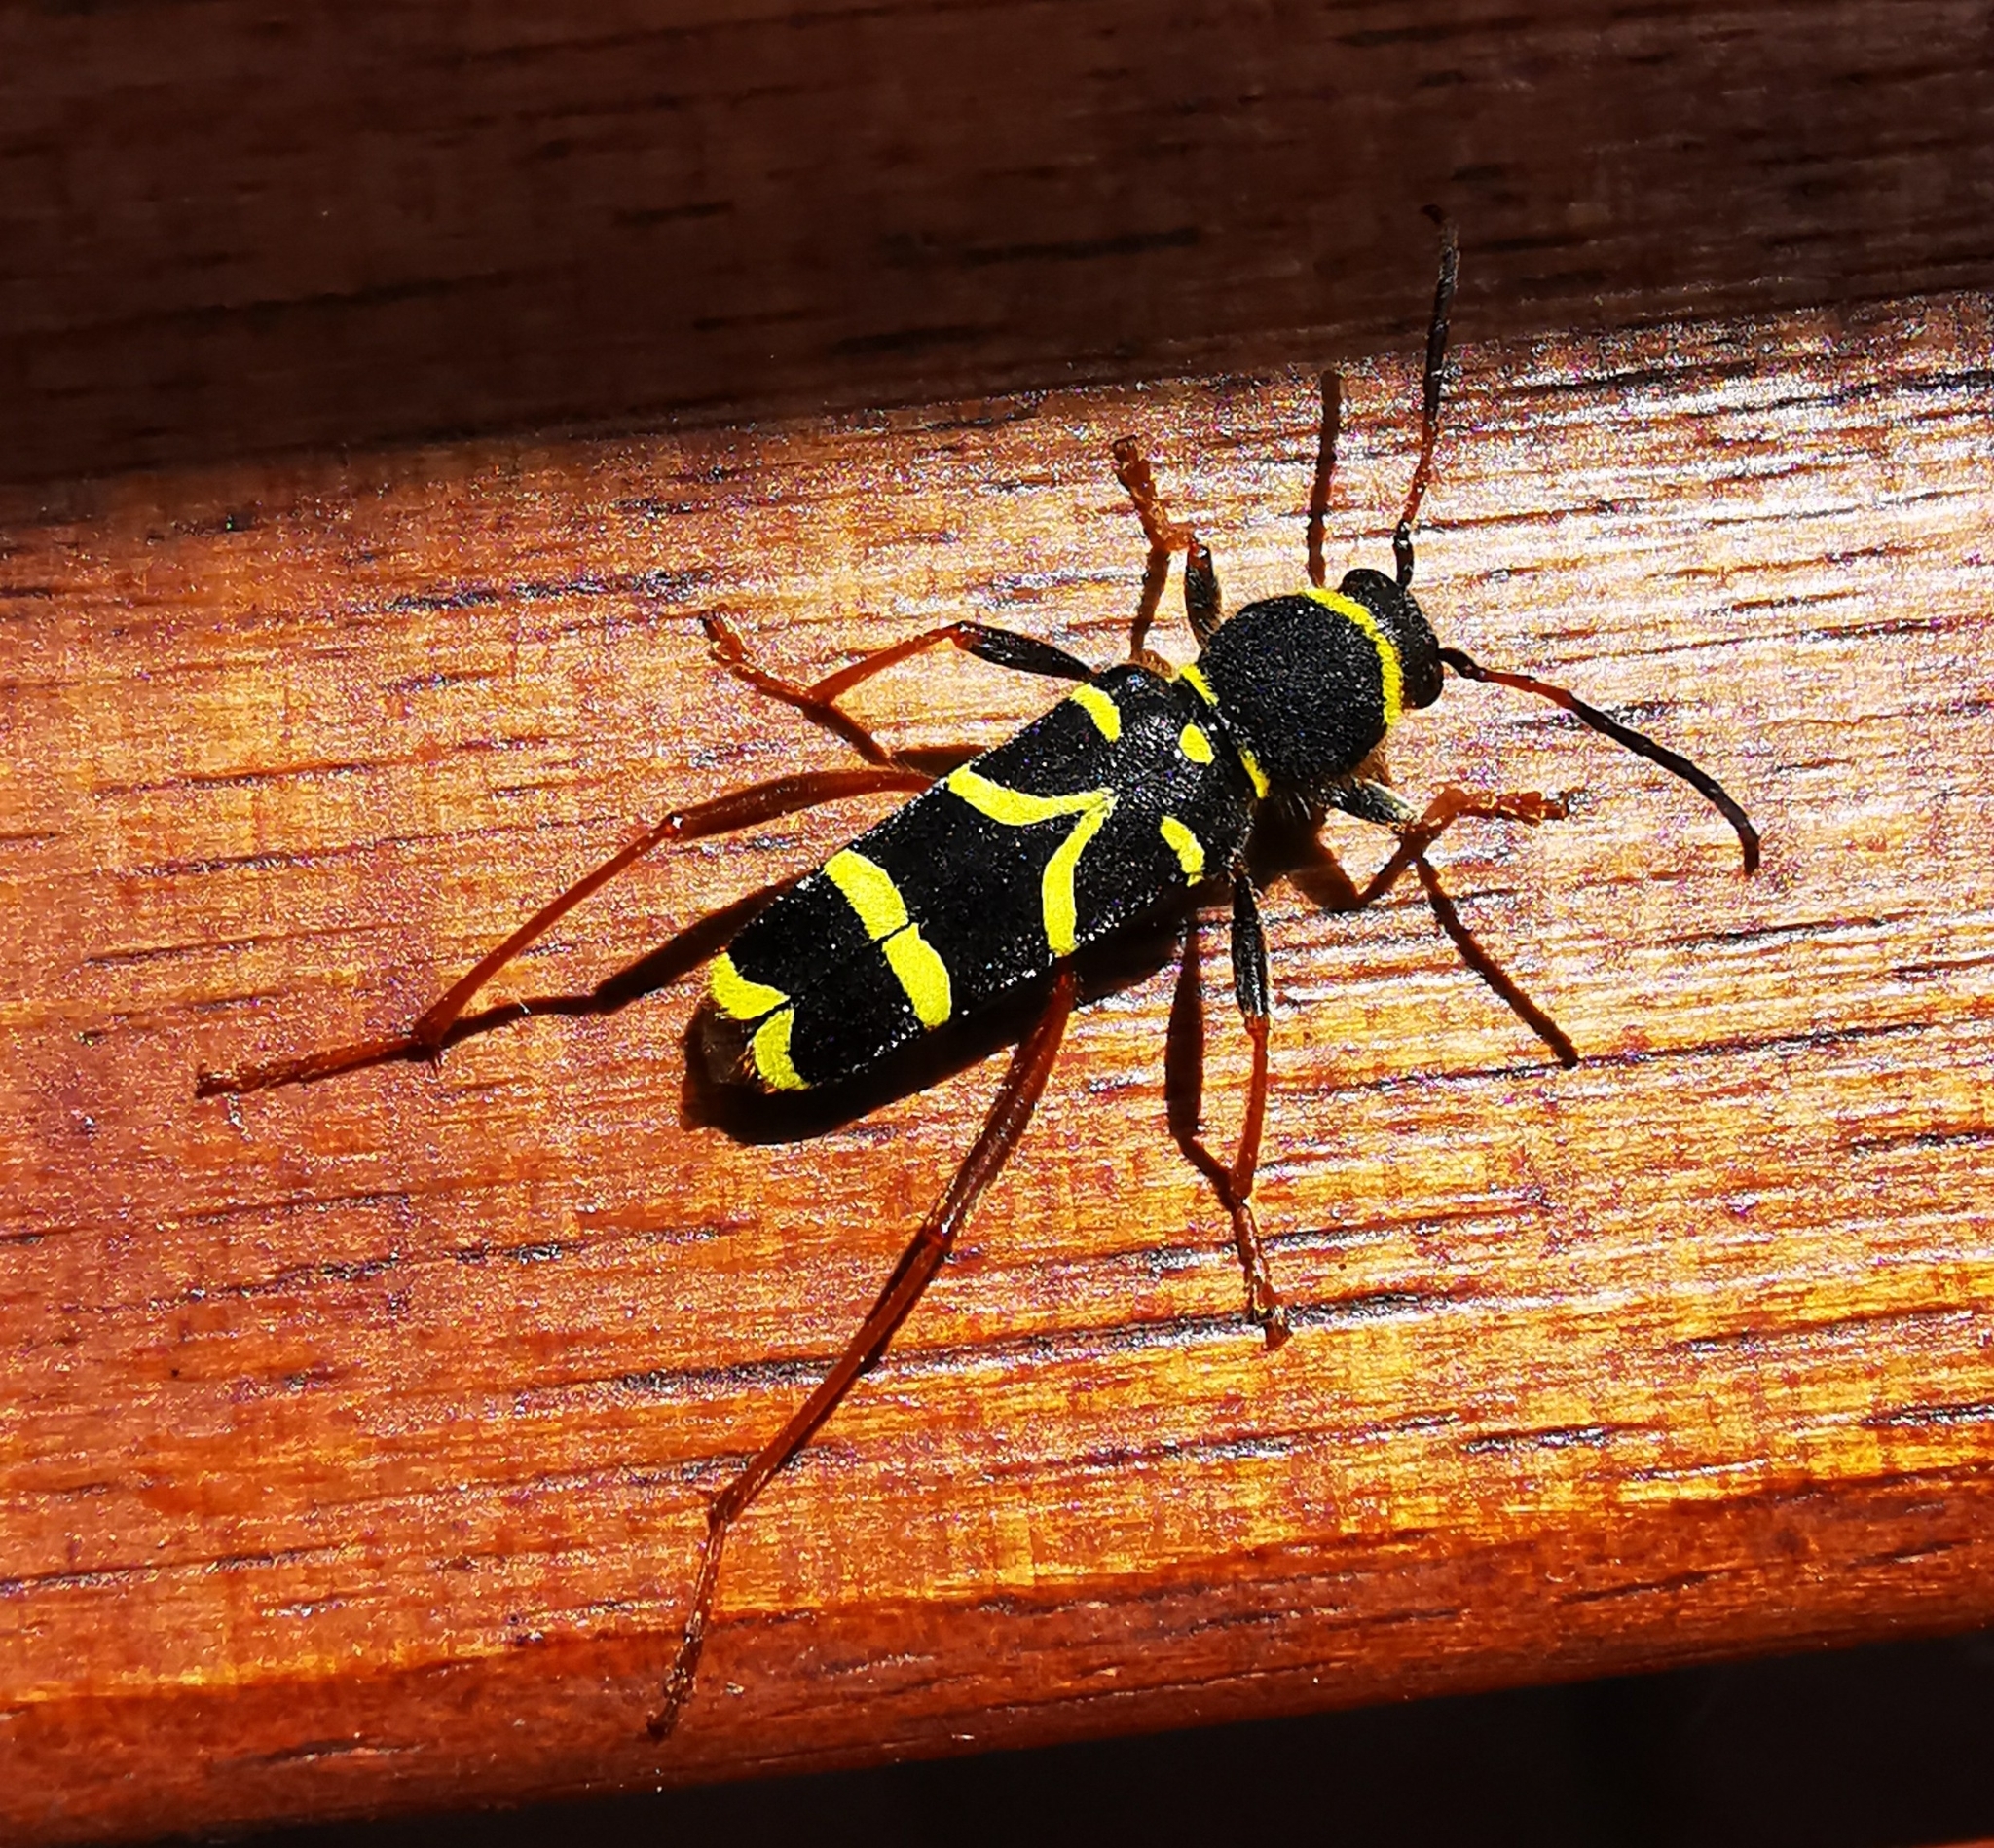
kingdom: Animalia
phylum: Arthropoda
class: Insecta
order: Coleoptera
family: Cerambycidae
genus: Clytus
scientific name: Clytus arietis
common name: Wasp beetle
